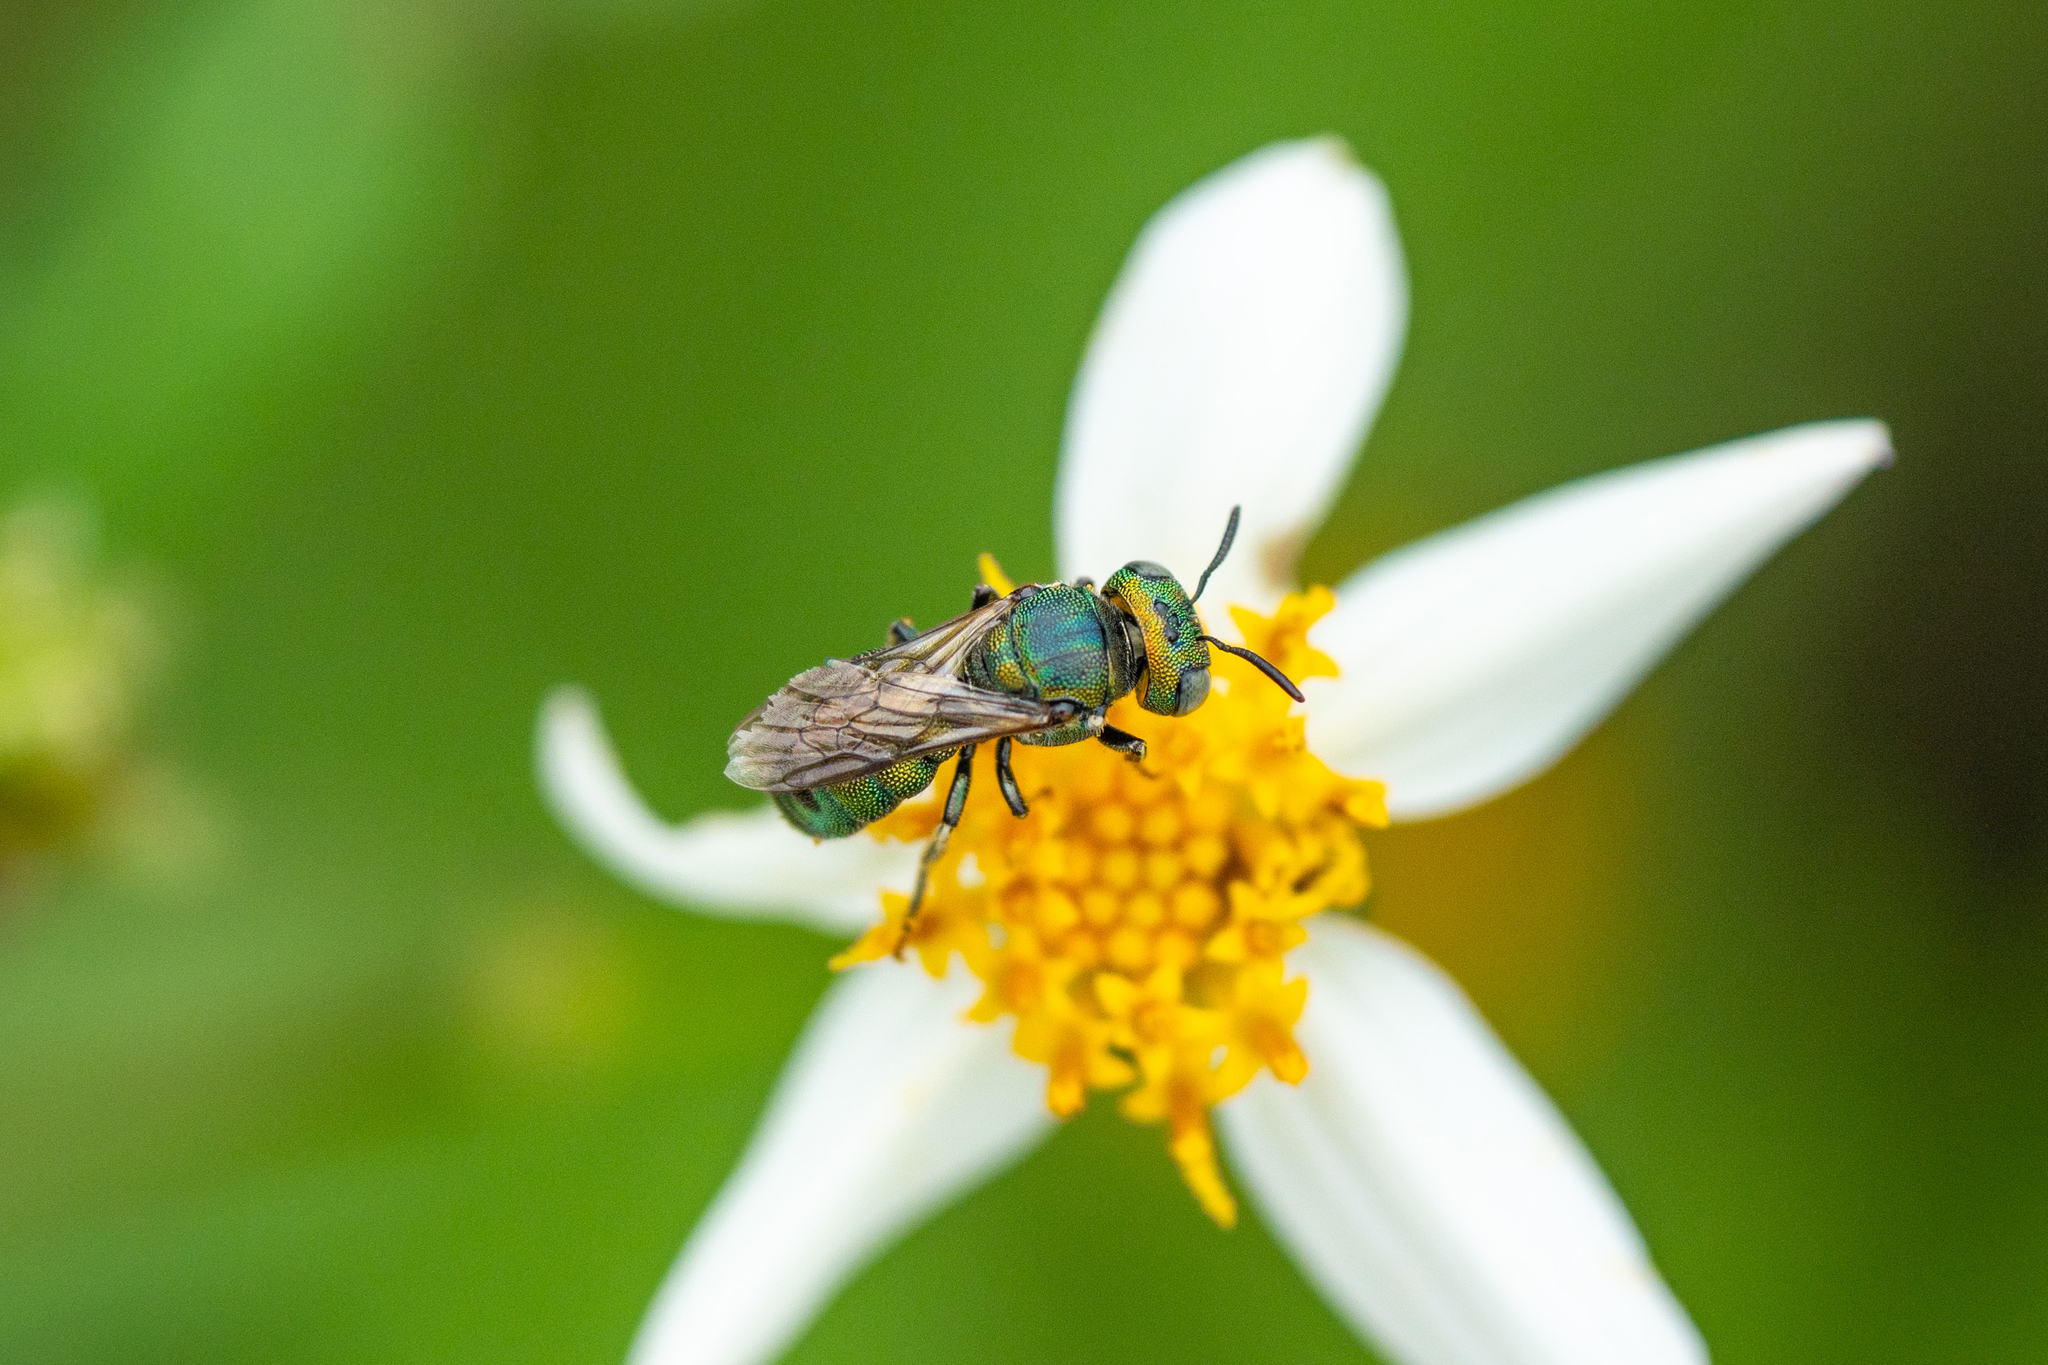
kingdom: Animalia
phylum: Arthropoda
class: Insecta
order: Hymenoptera
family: Apidae
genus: Ceratina
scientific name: Ceratina smaragdula
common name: Small carpenter bee
